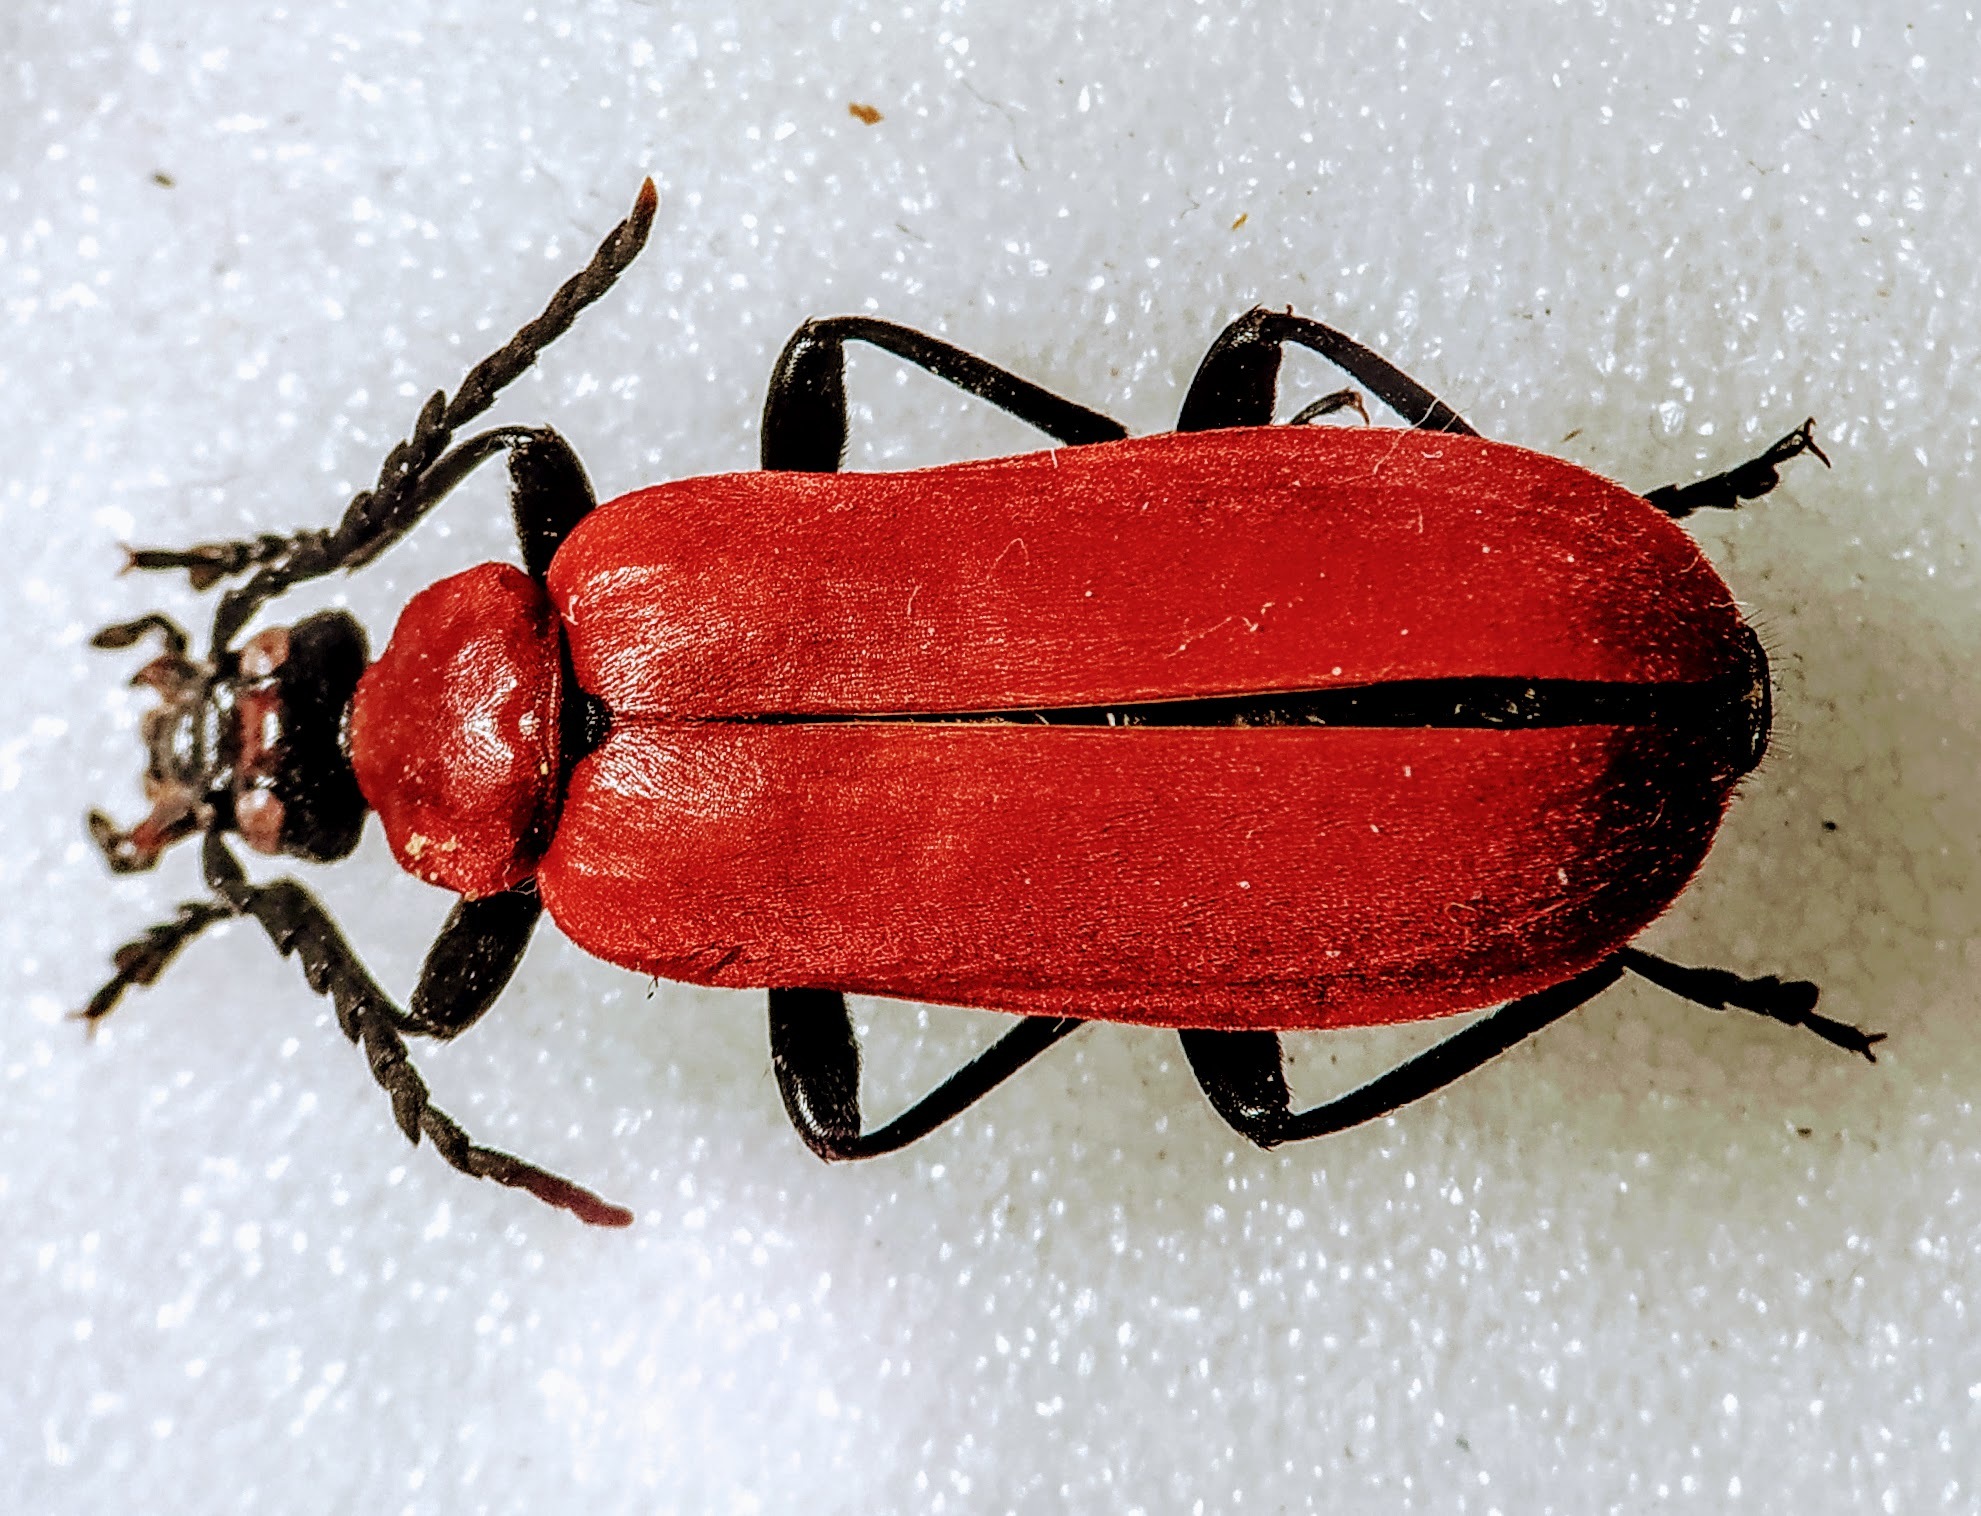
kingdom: Animalia
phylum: Arthropoda
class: Insecta
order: Coleoptera
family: Pyrochroidae
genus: Pyrochroa
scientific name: Pyrochroa coccinea
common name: Black-headed cardinal beetle
